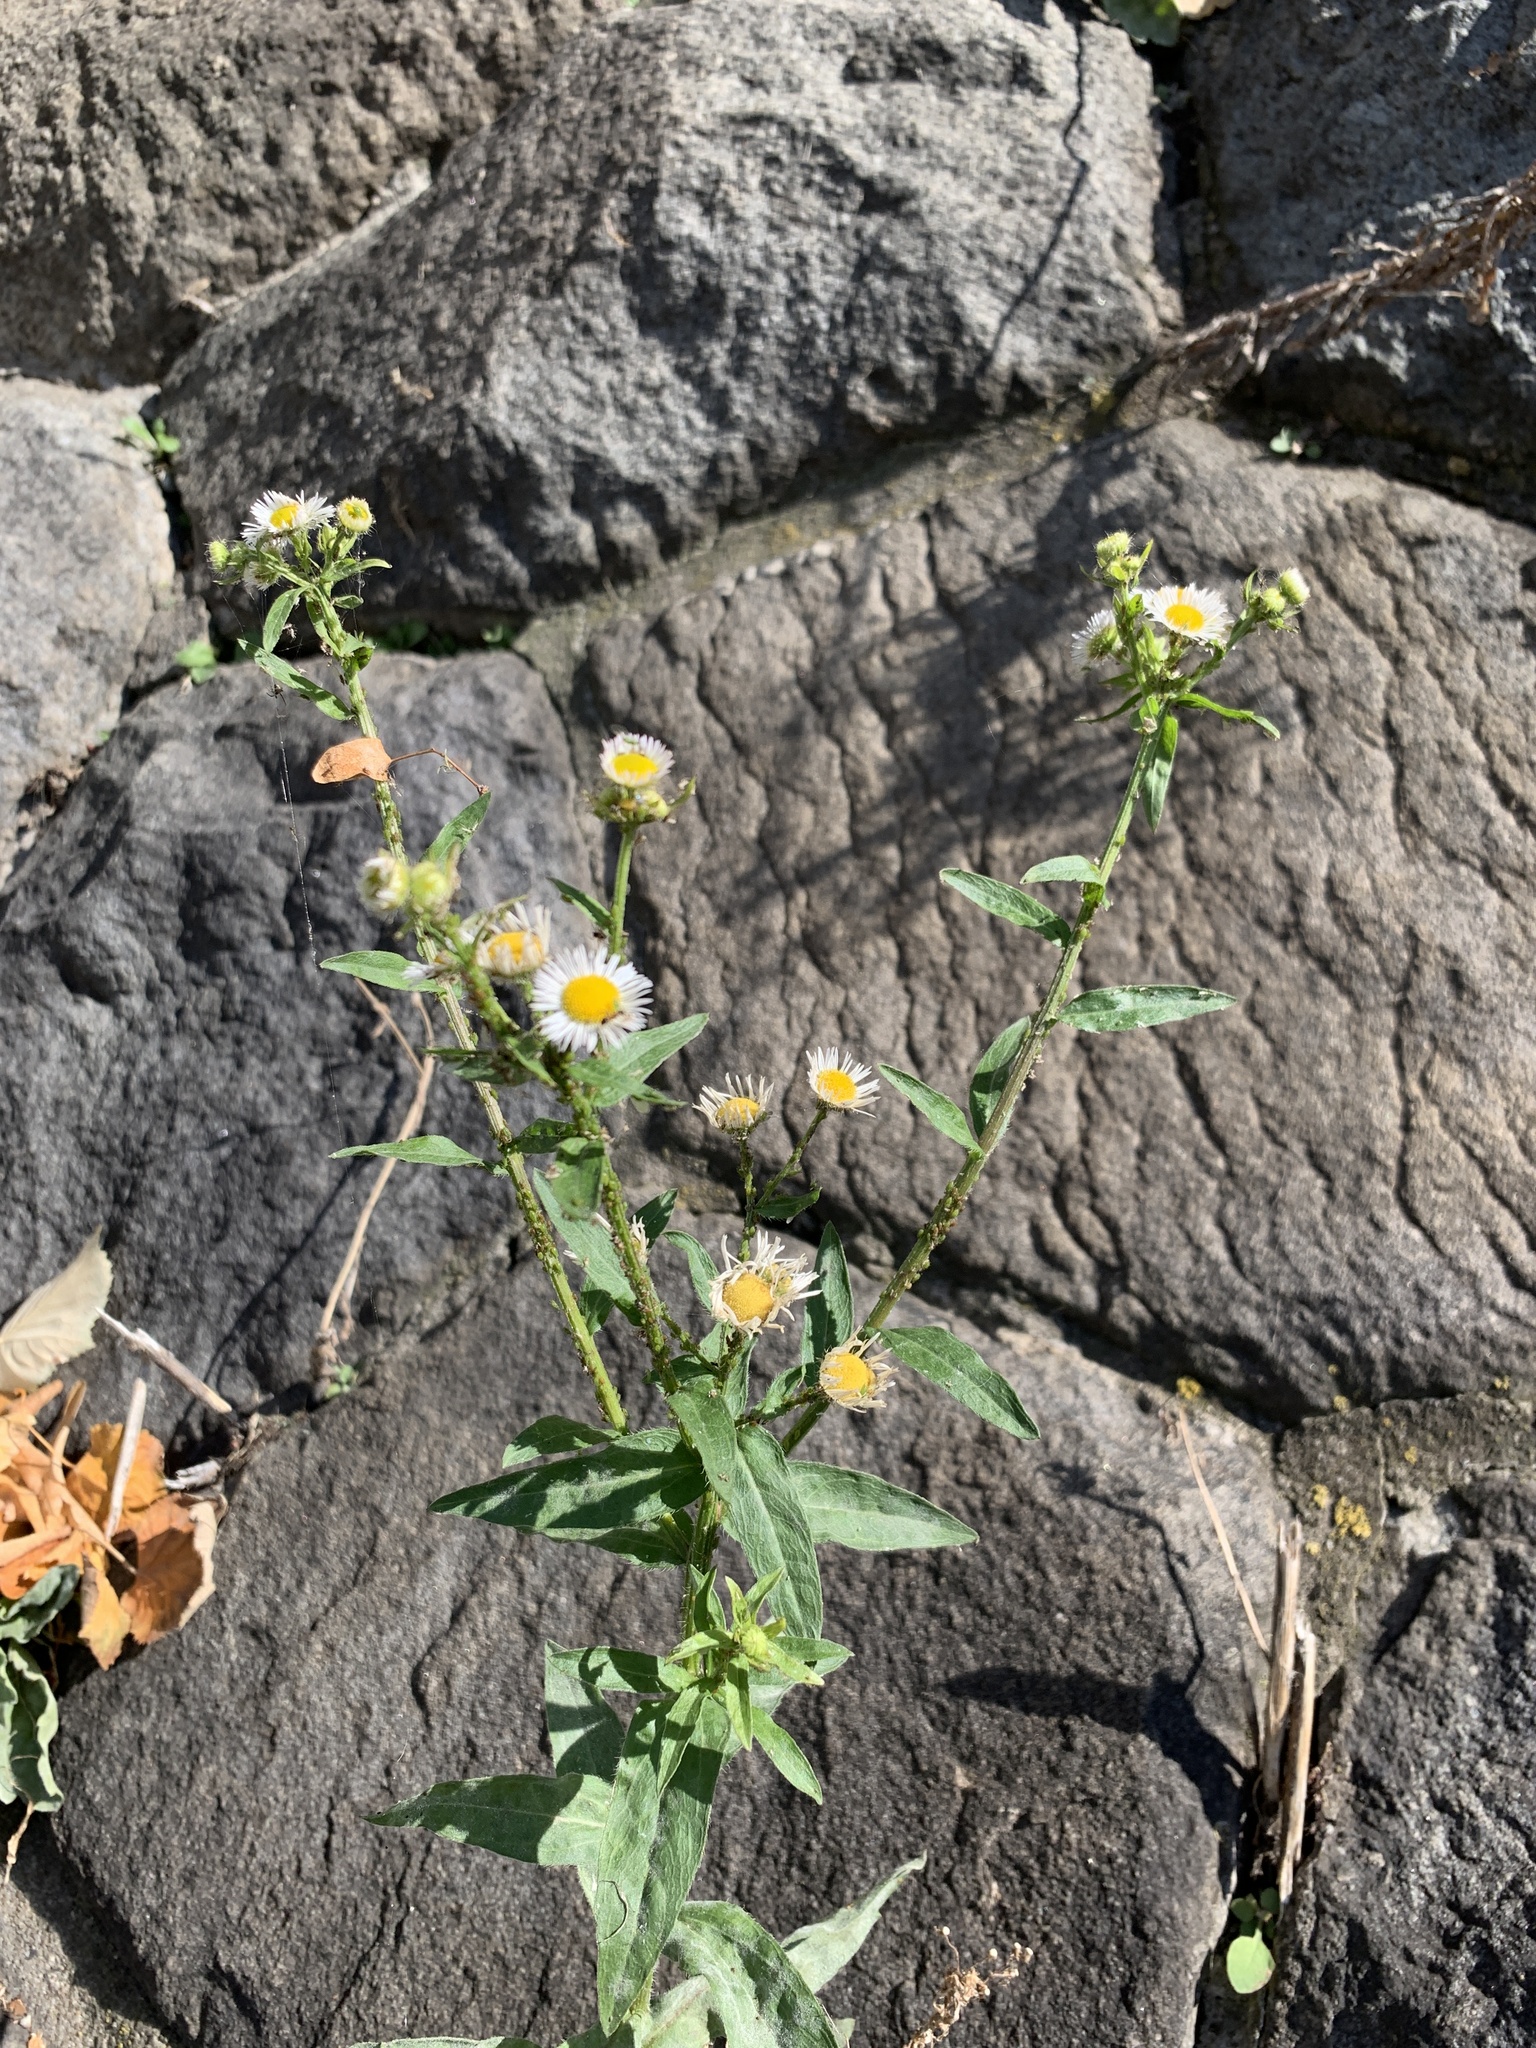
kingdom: Plantae
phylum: Tracheophyta
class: Magnoliopsida
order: Asterales
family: Asteraceae
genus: Erigeron
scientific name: Erigeron annuus
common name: Tall fleabane
